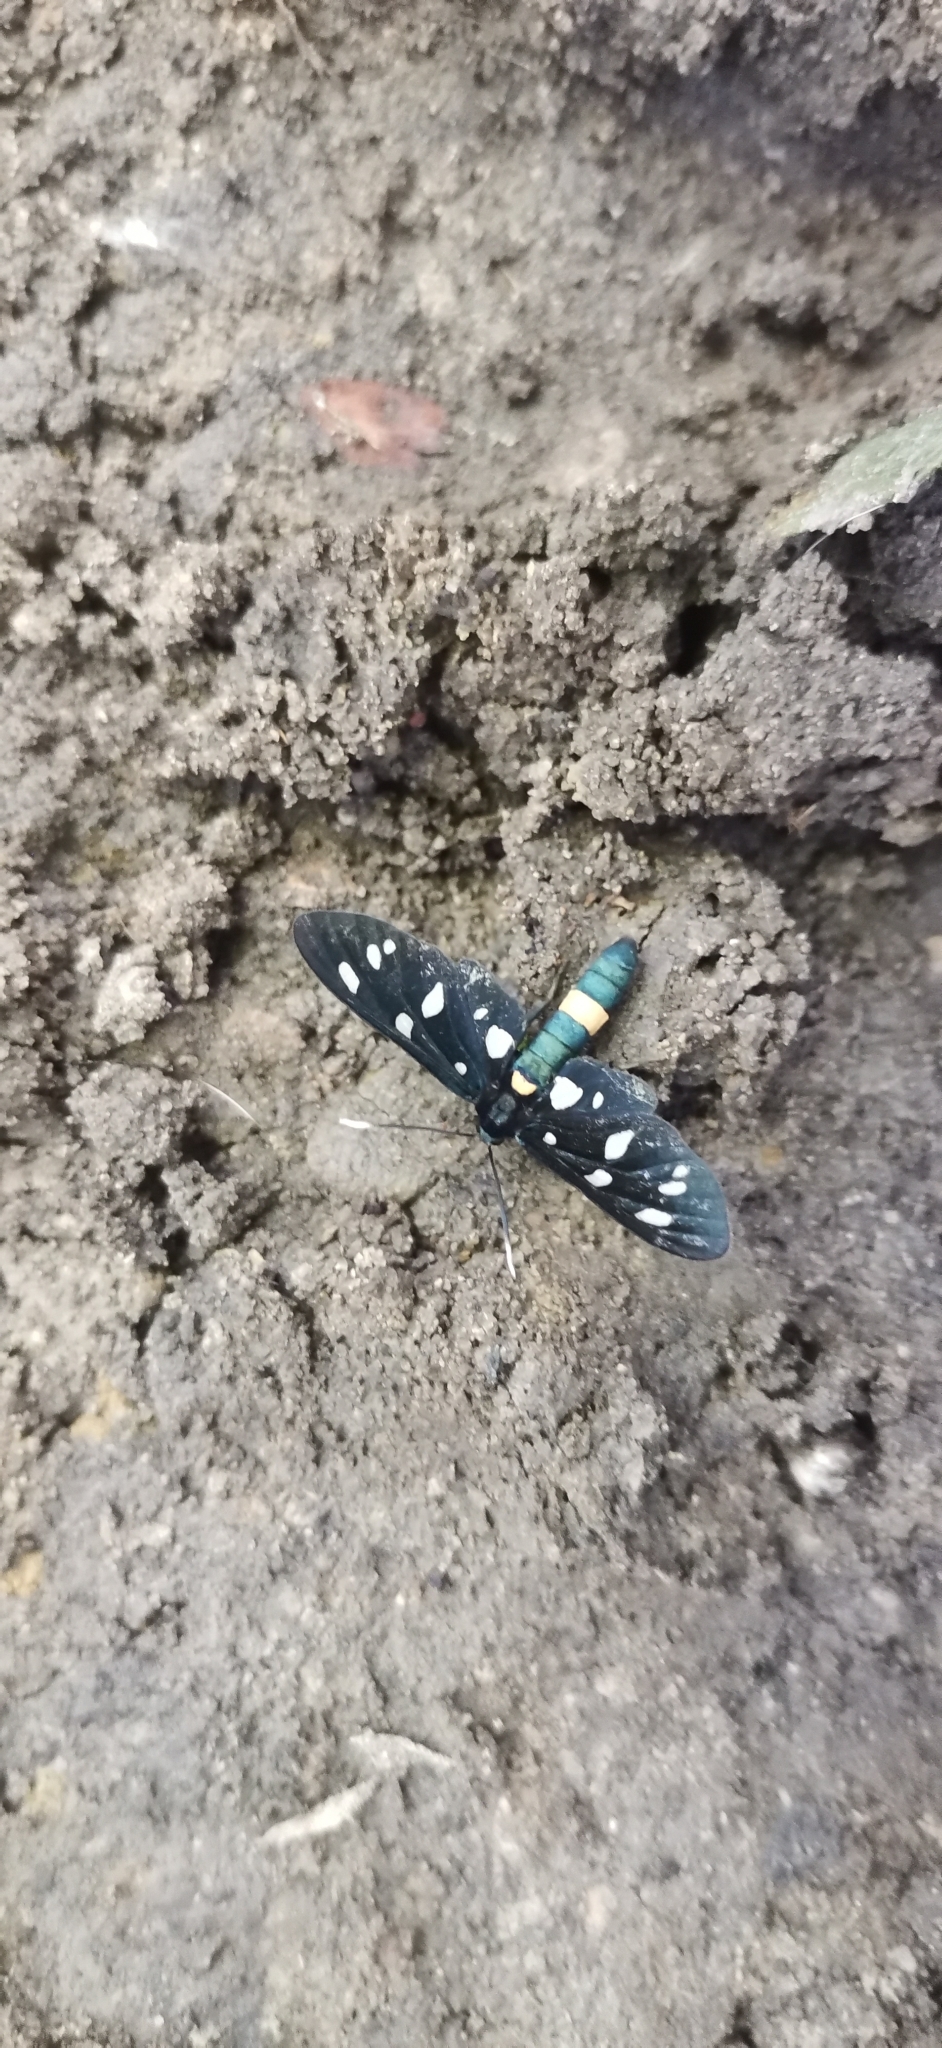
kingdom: Animalia
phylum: Arthropoda
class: Insecta
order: Lepidoptera
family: Erebidae
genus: Amata
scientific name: Amata ragazzii
